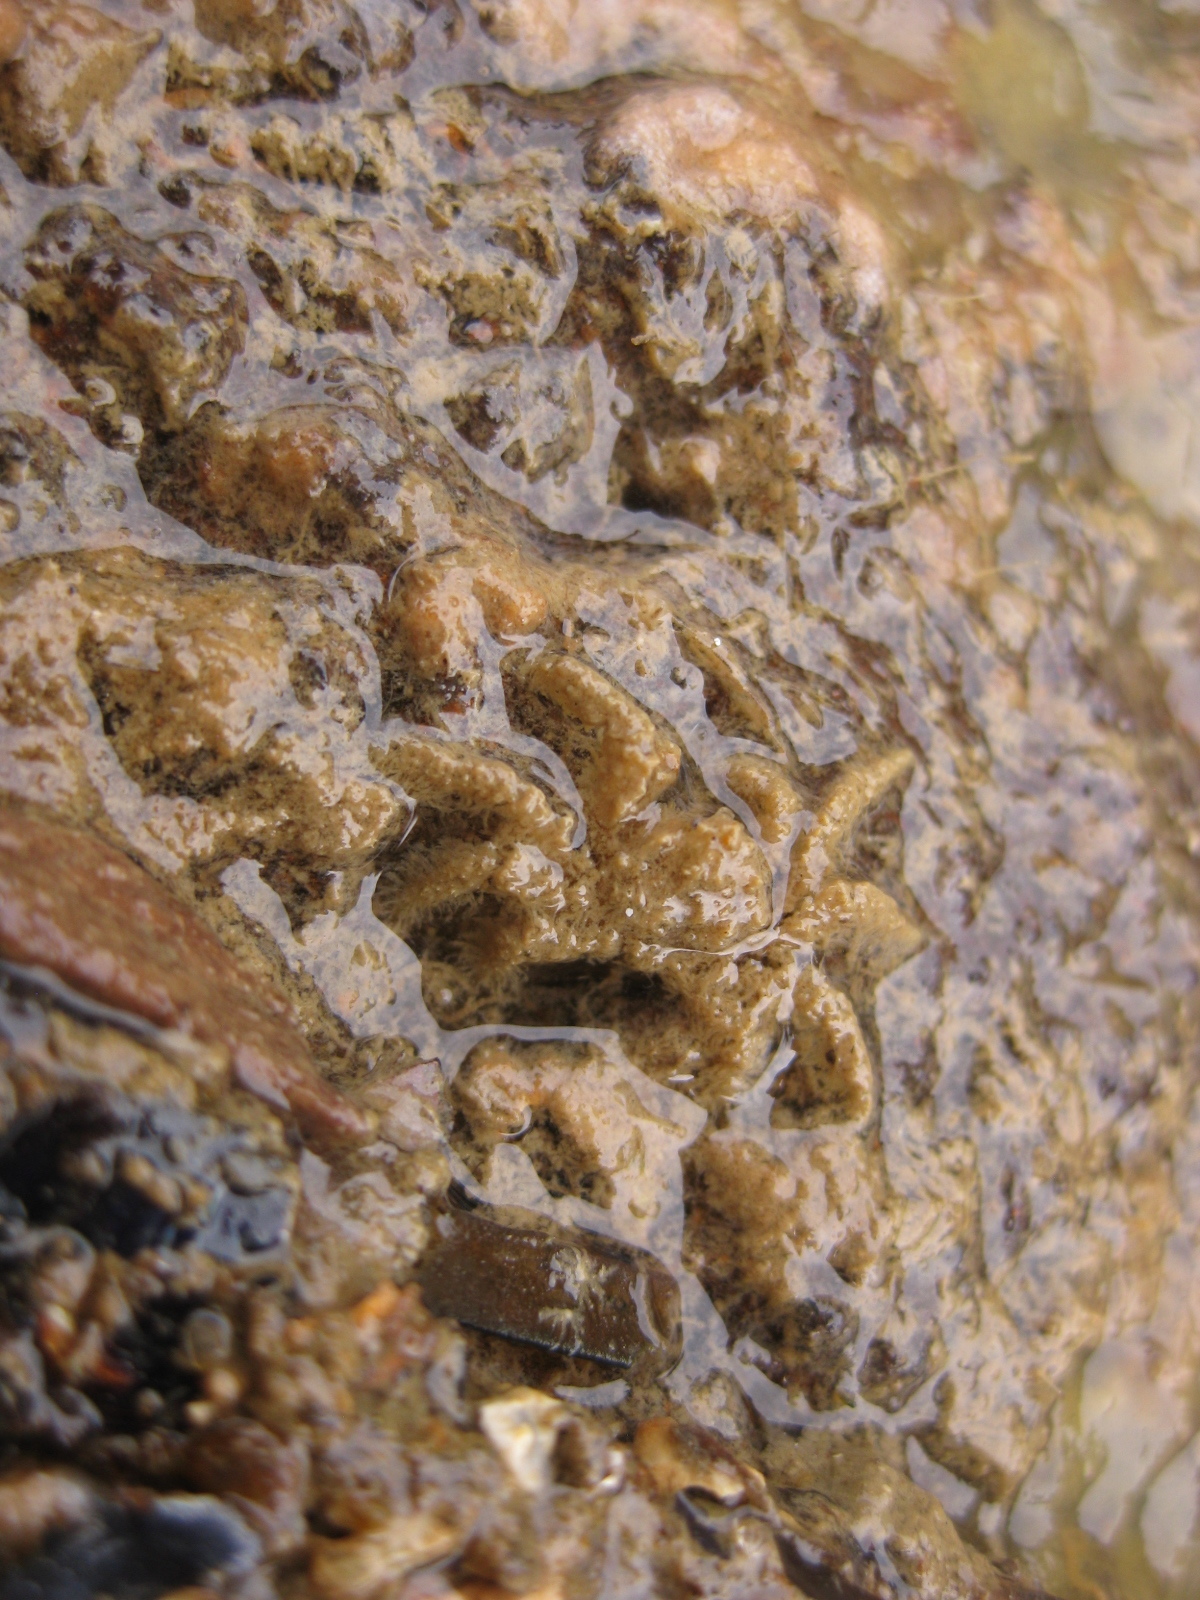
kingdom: Animalia
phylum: Arthropoda
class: Malacostraca
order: Decapoda
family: Hymenosomatidae
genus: Neohymenicus
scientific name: Neohymenicus pubescens
